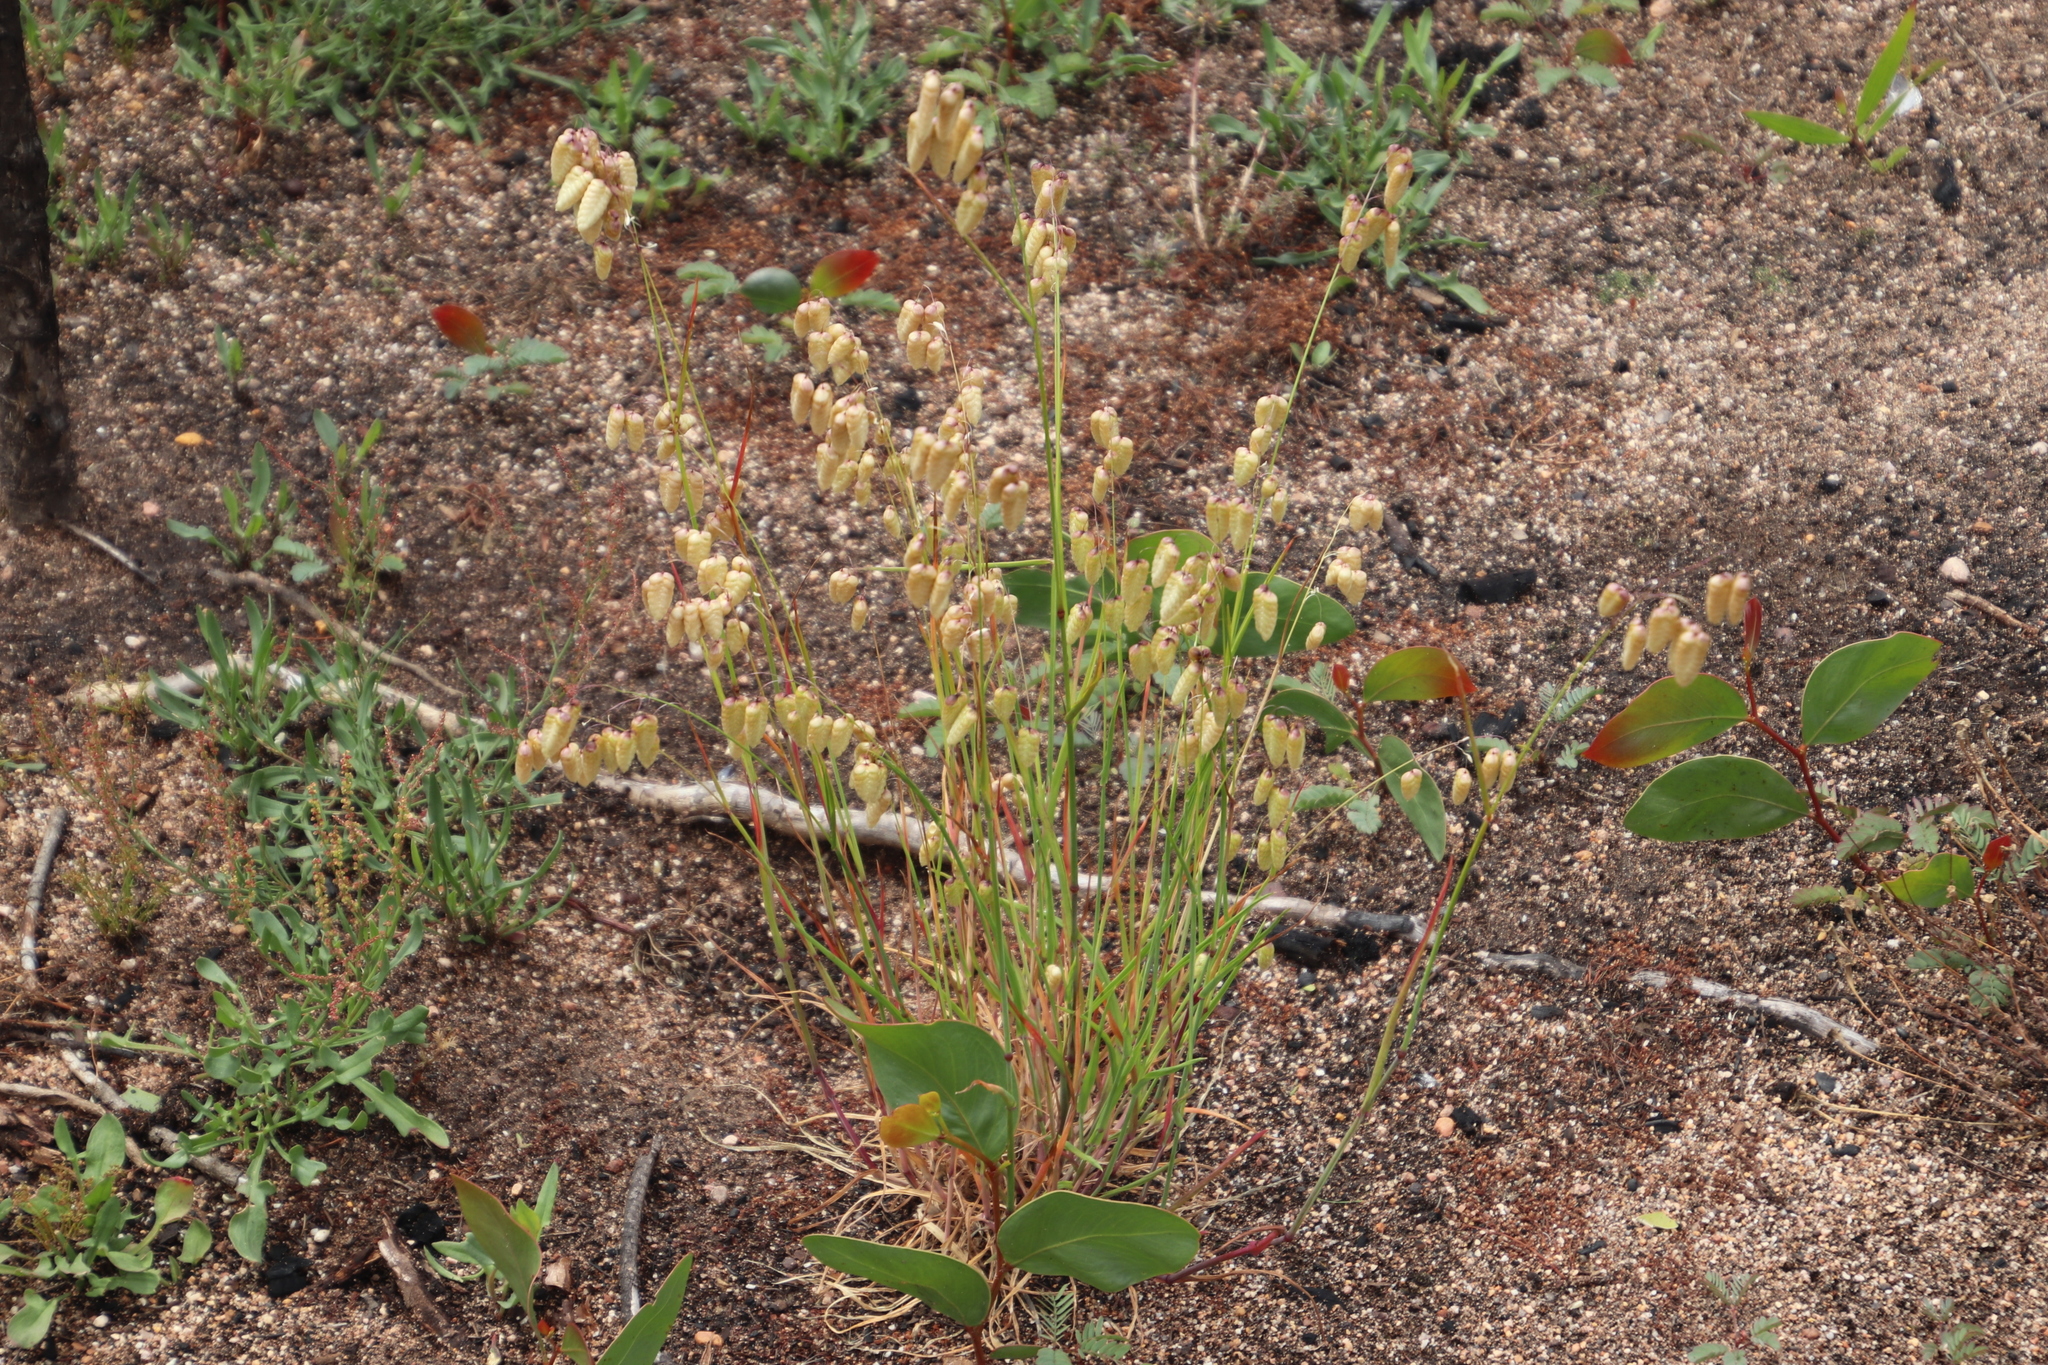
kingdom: Plantae
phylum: Tracheophyta
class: Liliopsida
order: Poales
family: Poaceae
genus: Briza
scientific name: Briza maxima
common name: Big quakinggrass
